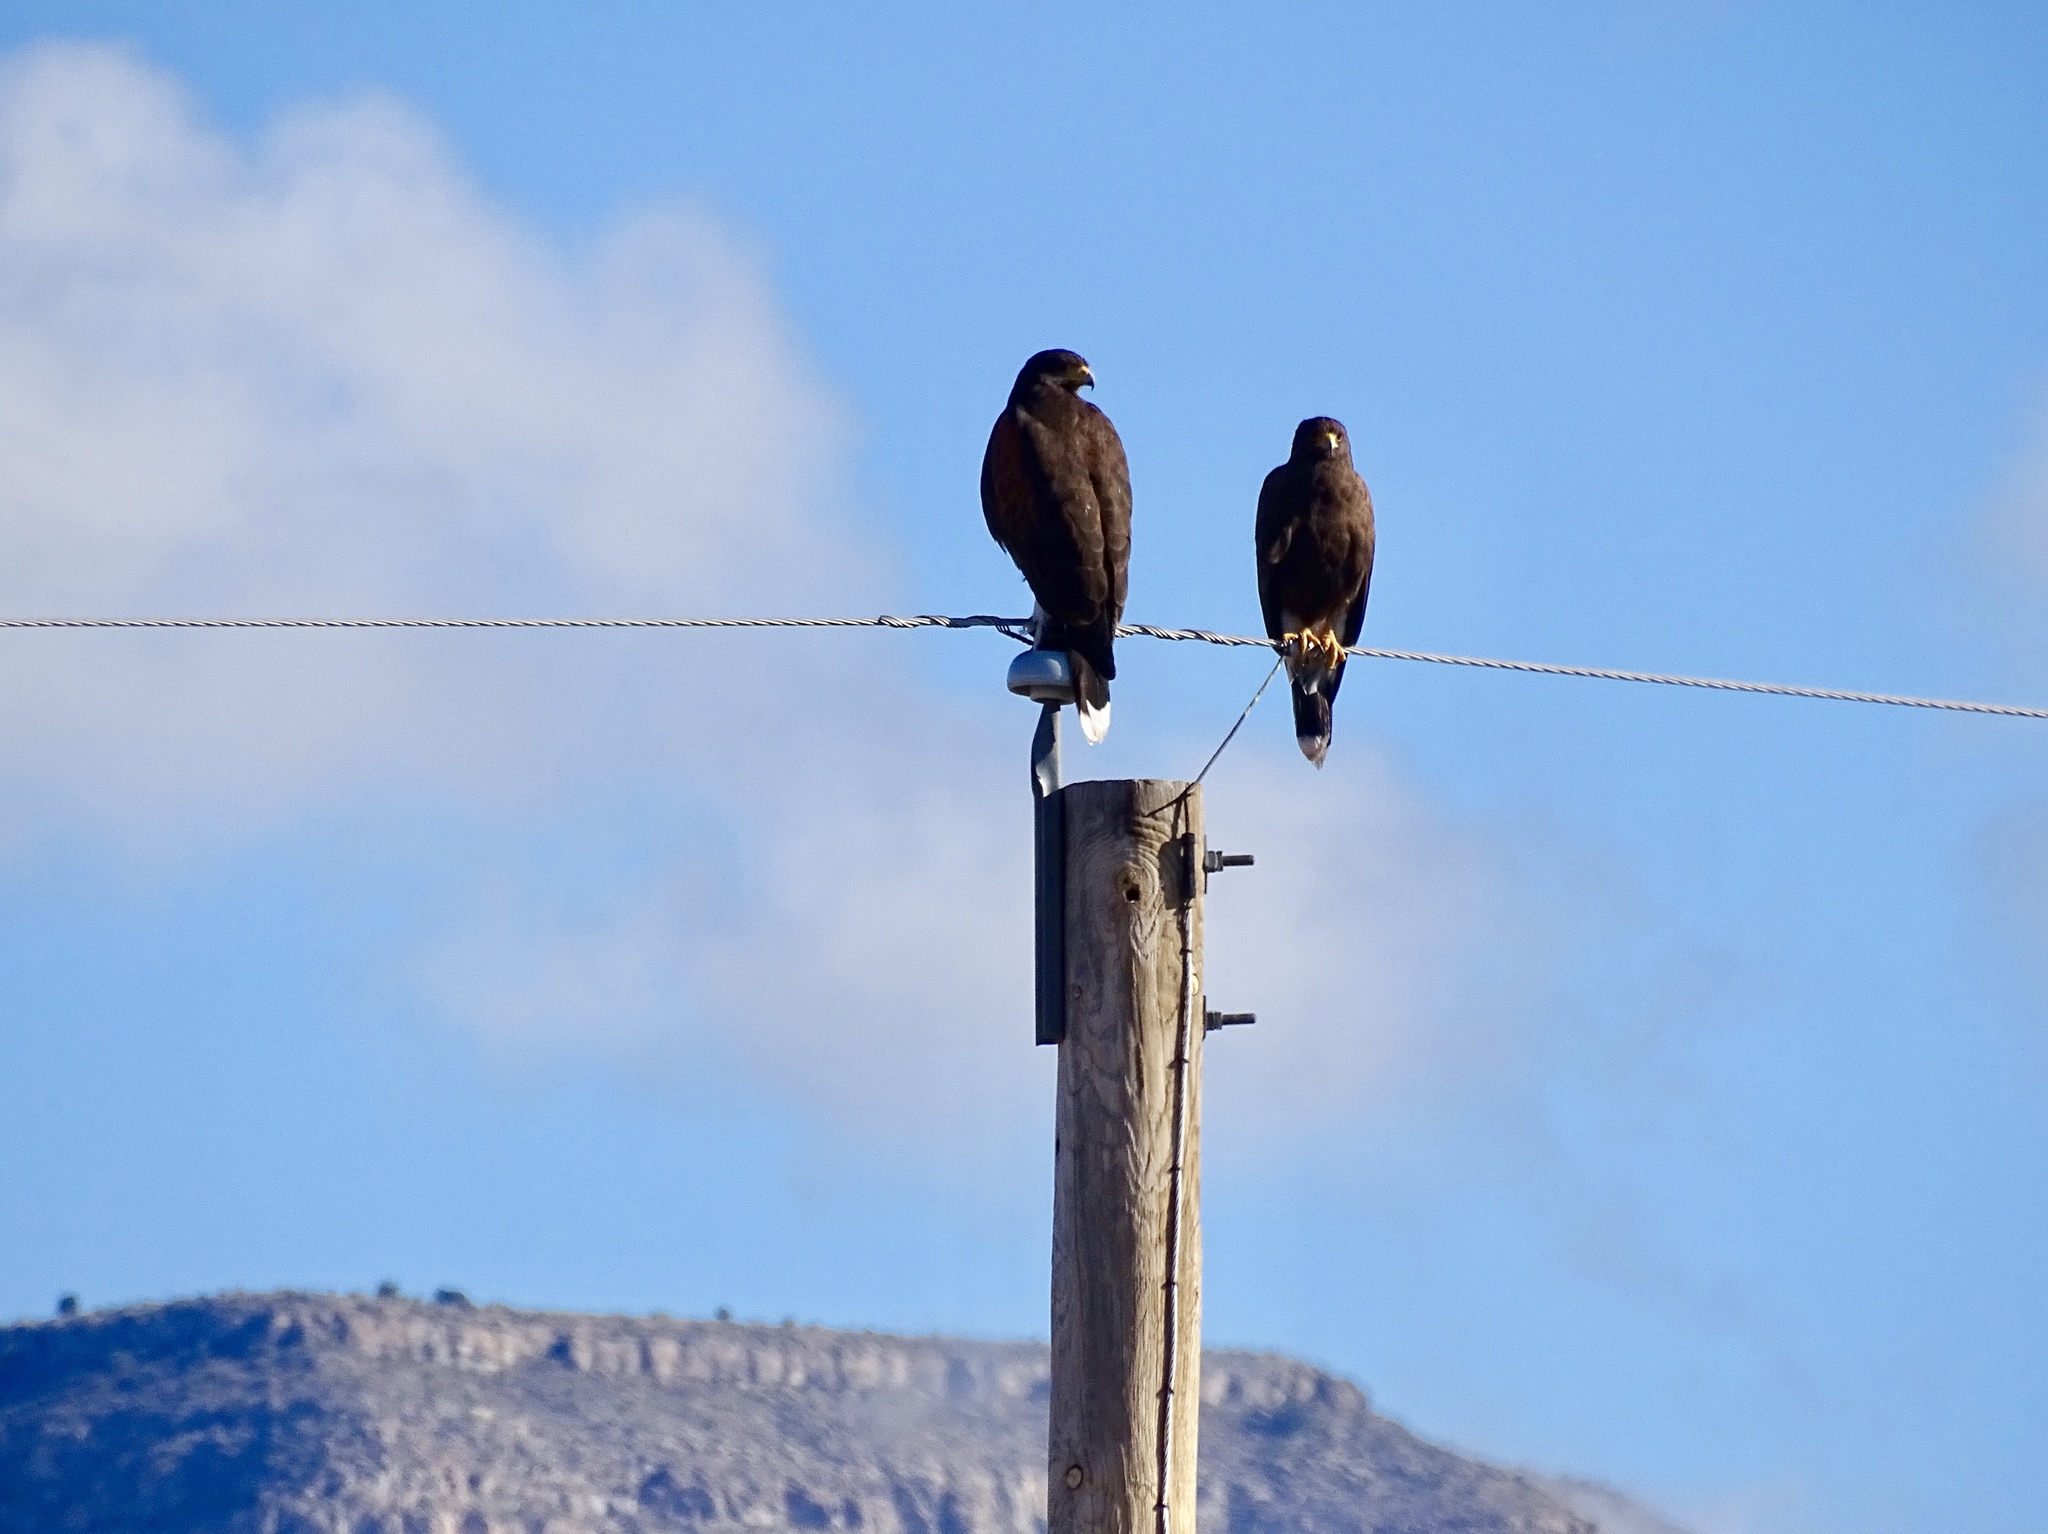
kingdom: Animalia
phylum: Chordata
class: Aves
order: Accipitriformes
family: Accipitridae
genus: Parabuteo
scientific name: Parabuteo unicinctus
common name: Harris's hawk
